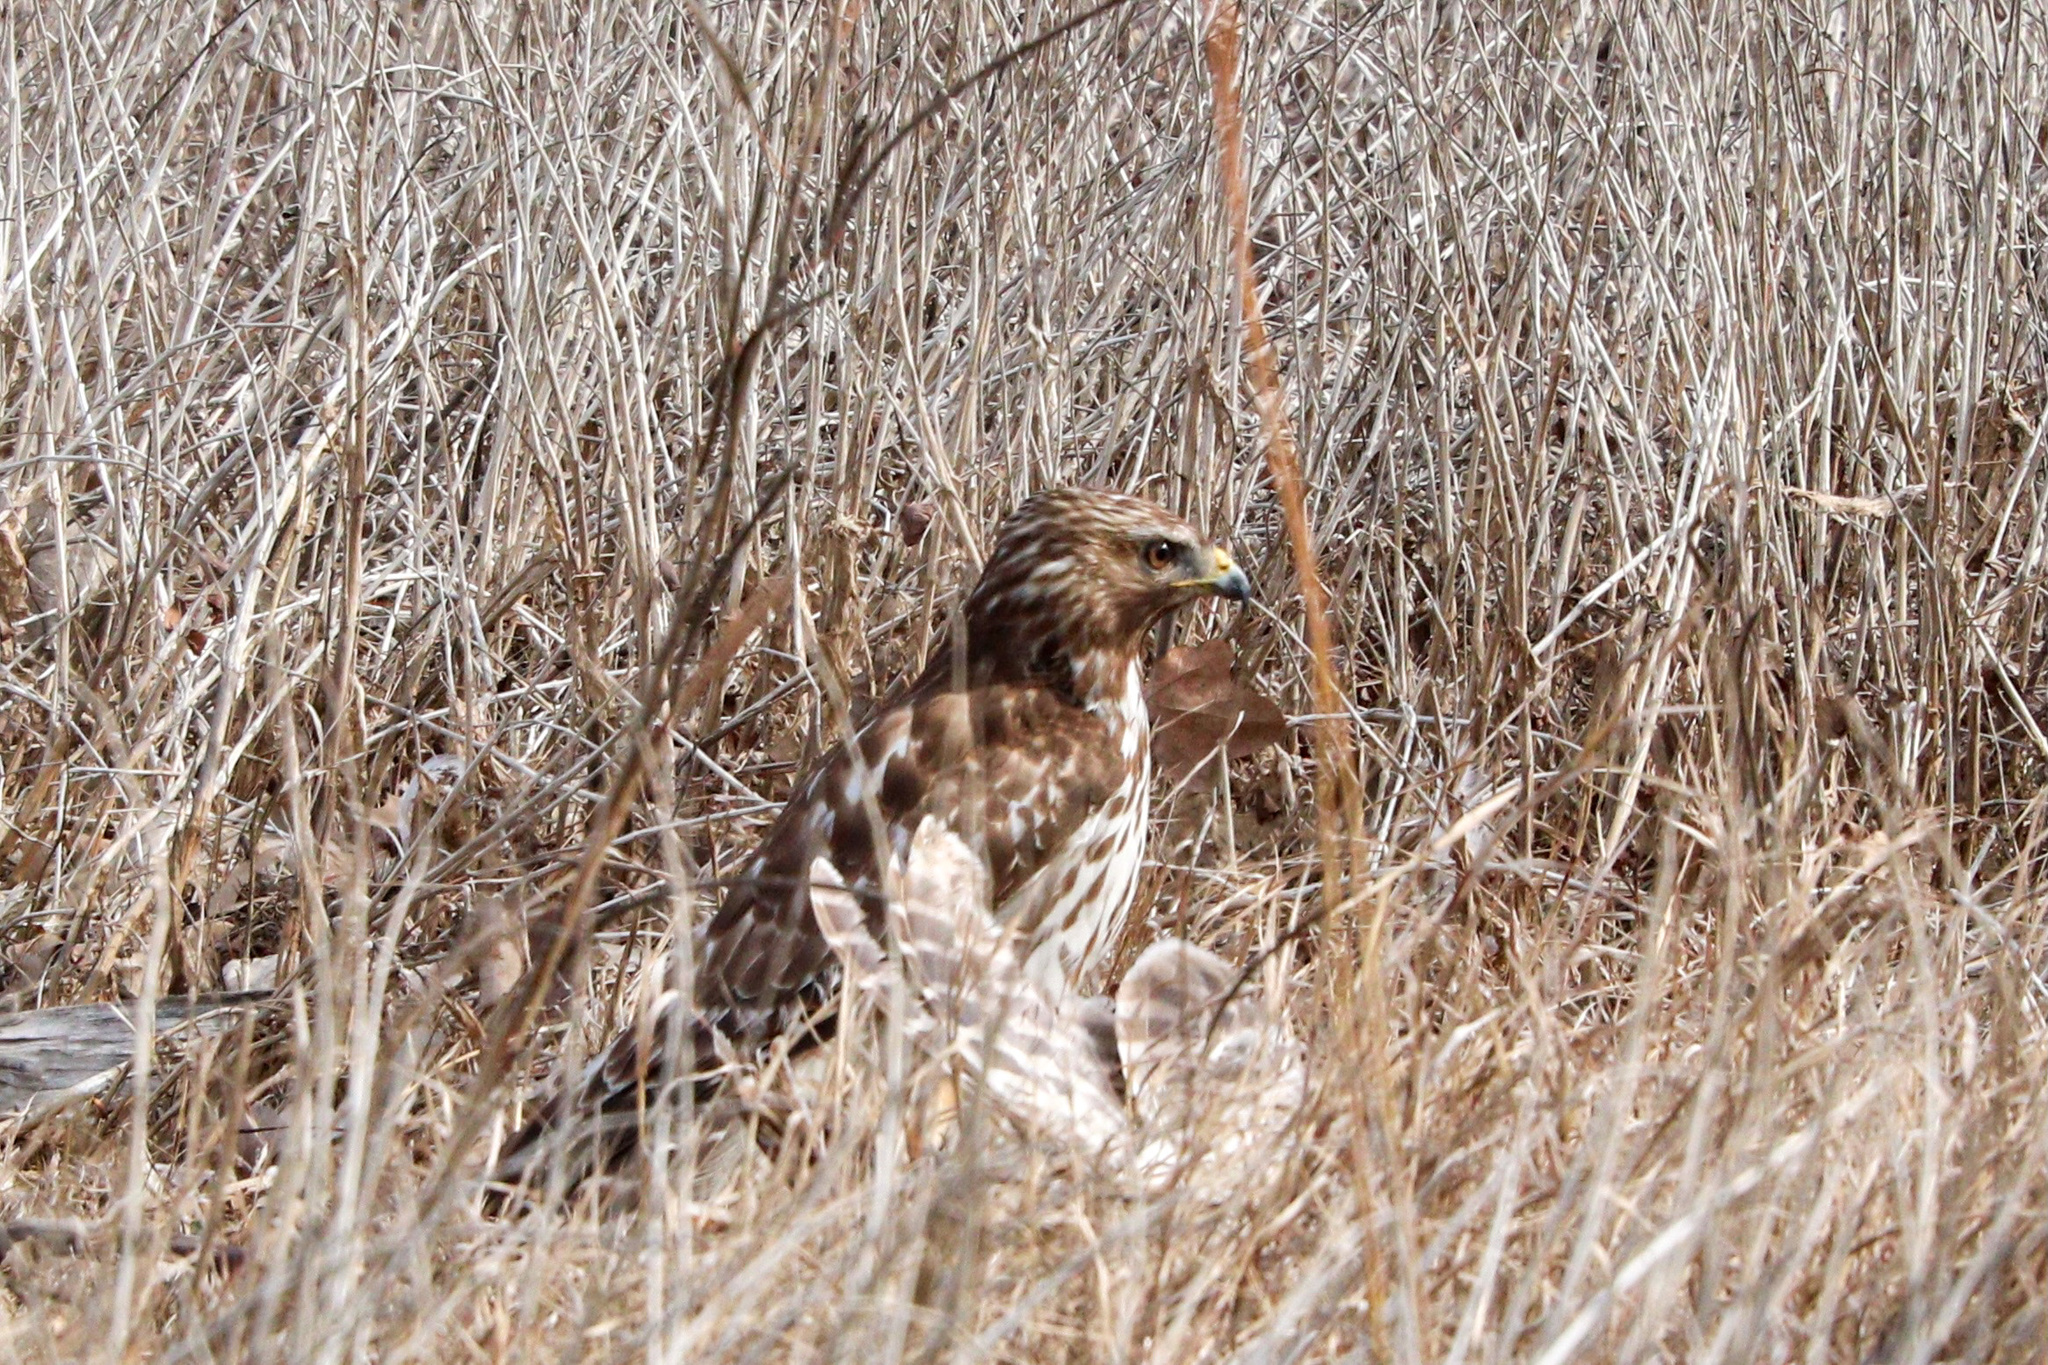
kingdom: Animalia
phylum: Chordata
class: Aves
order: Accipitriformes
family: Accipitridae
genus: Buteo
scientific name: Buteo lineatus
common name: Red-shouldered hawk
